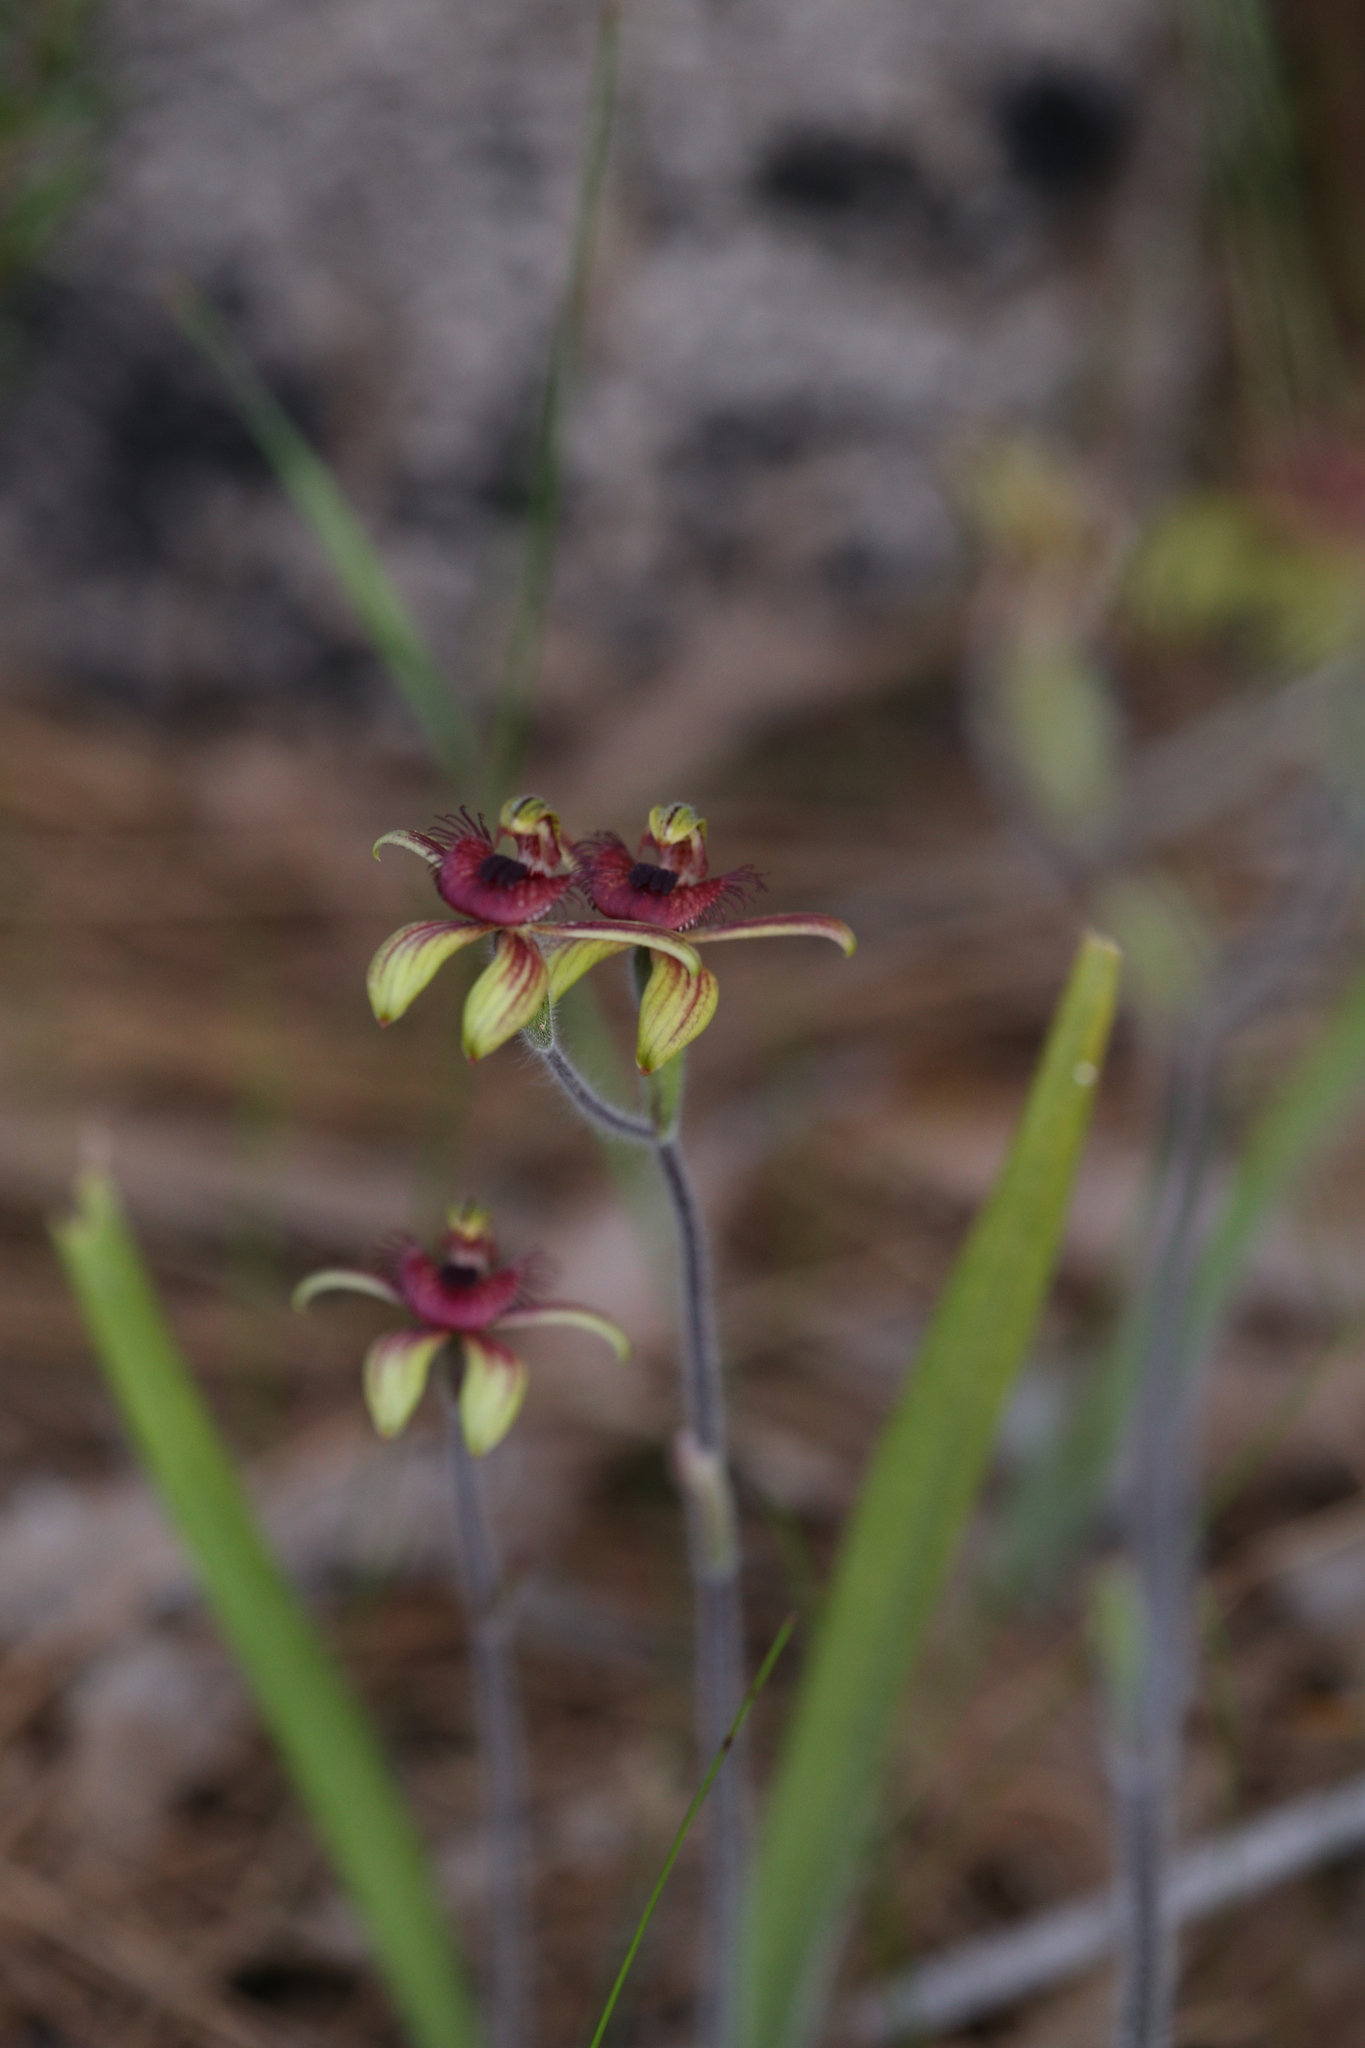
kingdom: Plantae
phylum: Tracheophyta
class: Liliopsida
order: Asparagales
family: Orchidaceae
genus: Caladenia
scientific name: Caladenia discoidea
